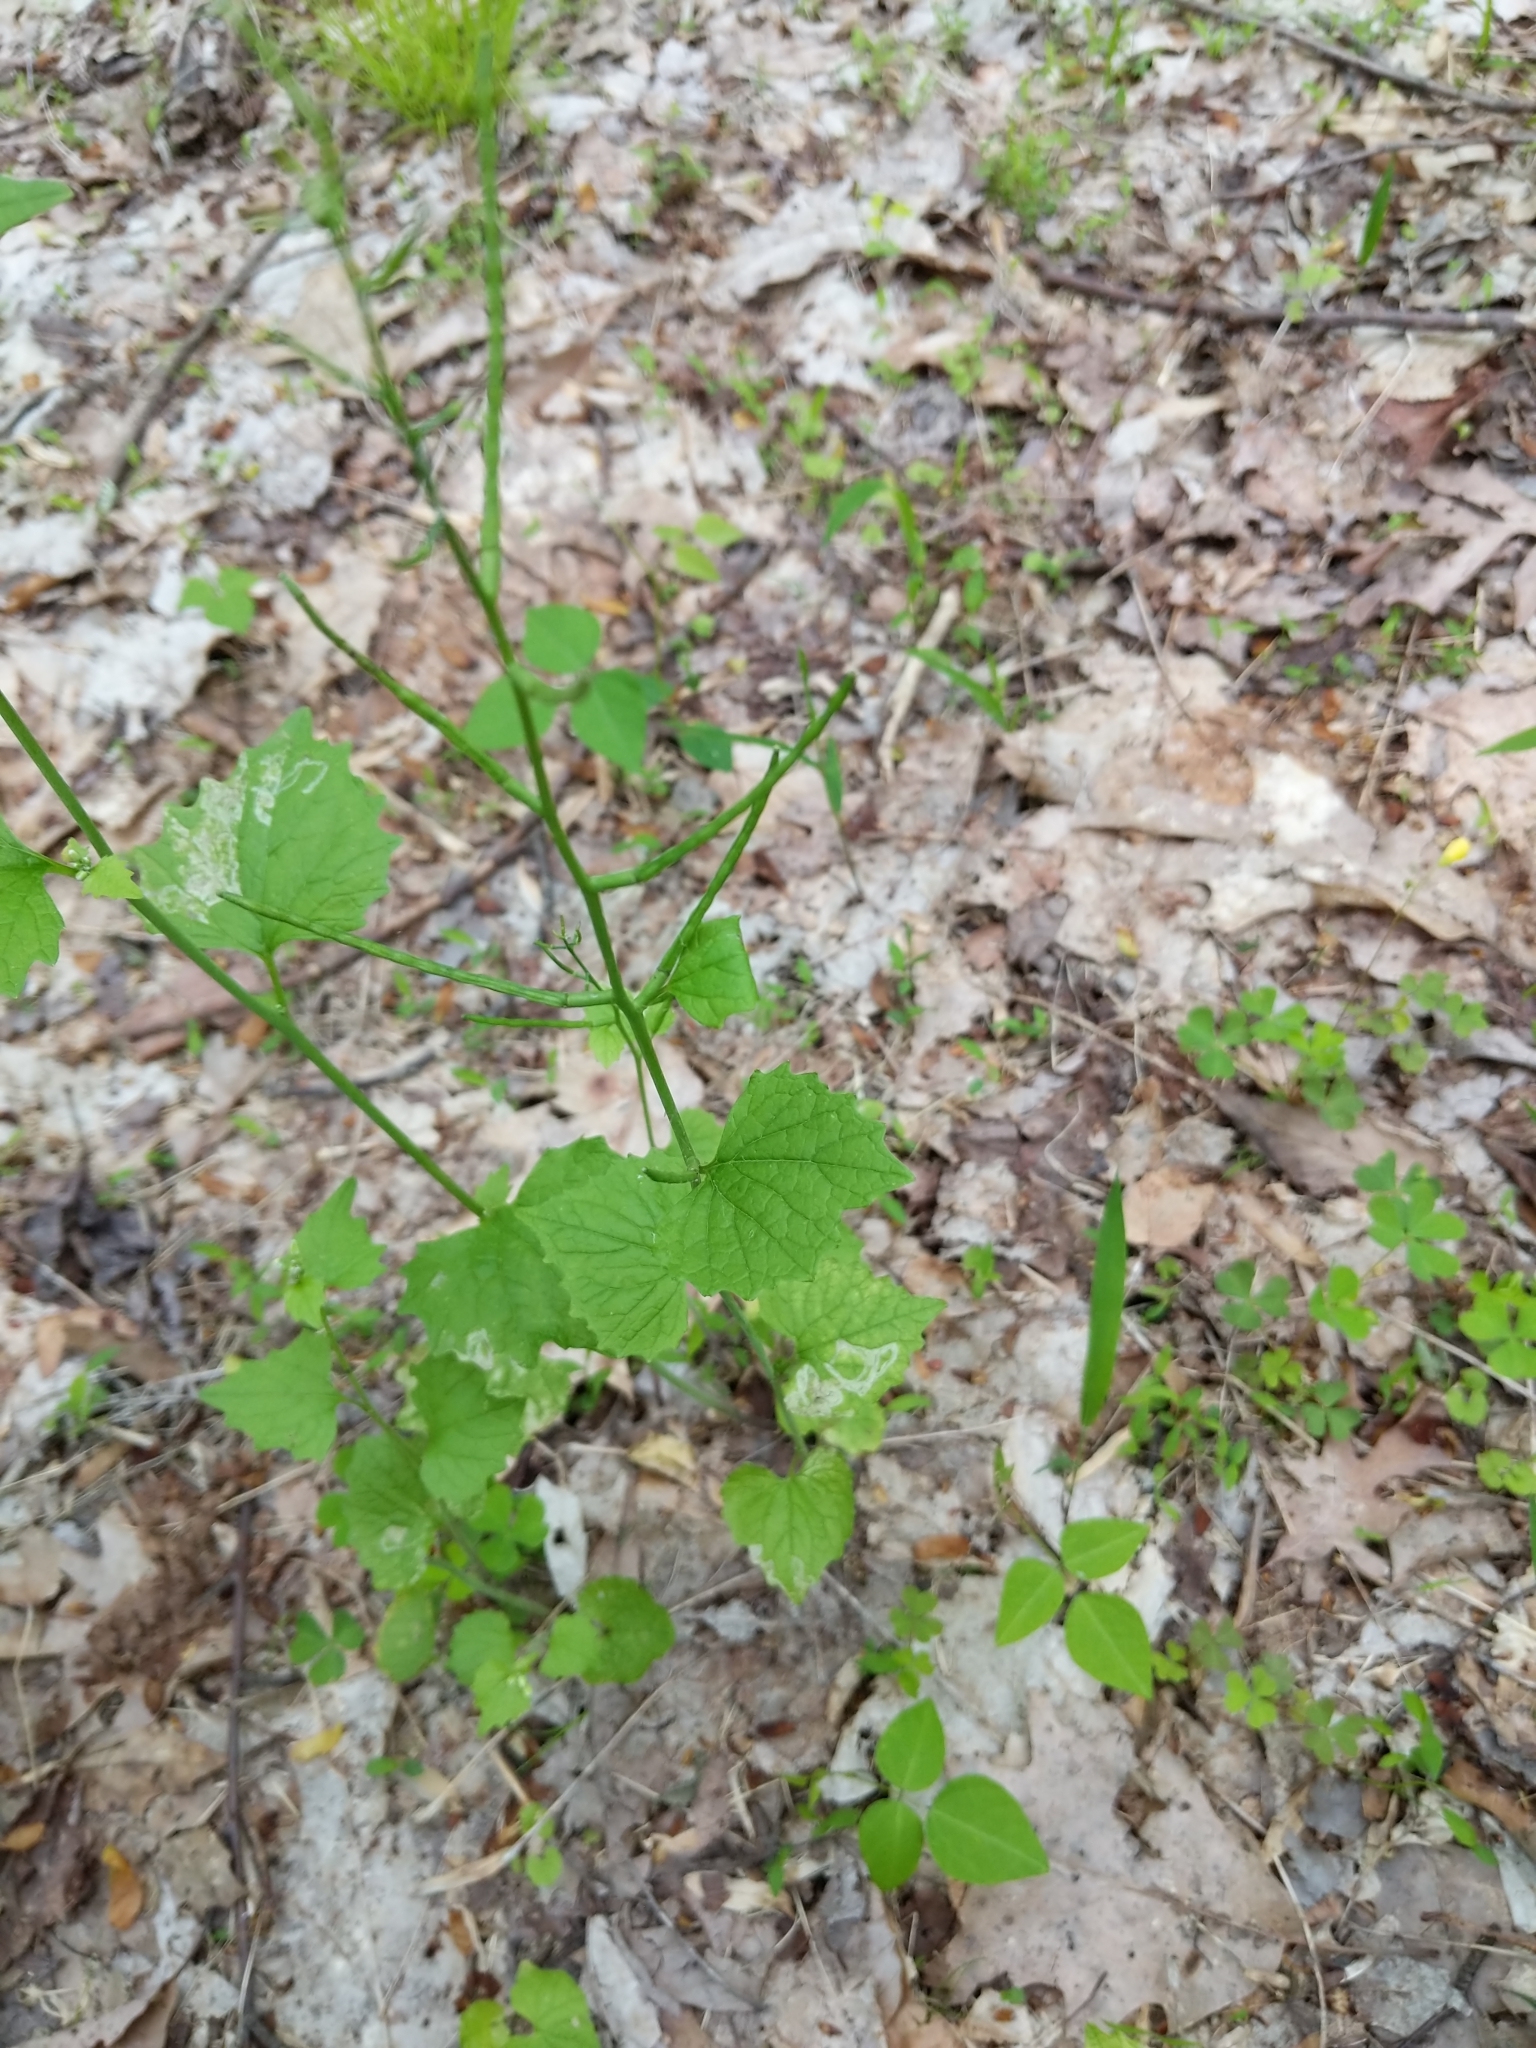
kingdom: Plantae
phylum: Tracheophyta
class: Magnoliopsida
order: Brassicales
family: Brassicaceae
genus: Alliaria
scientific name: Alliaria petiolata
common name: Garlic mustard
